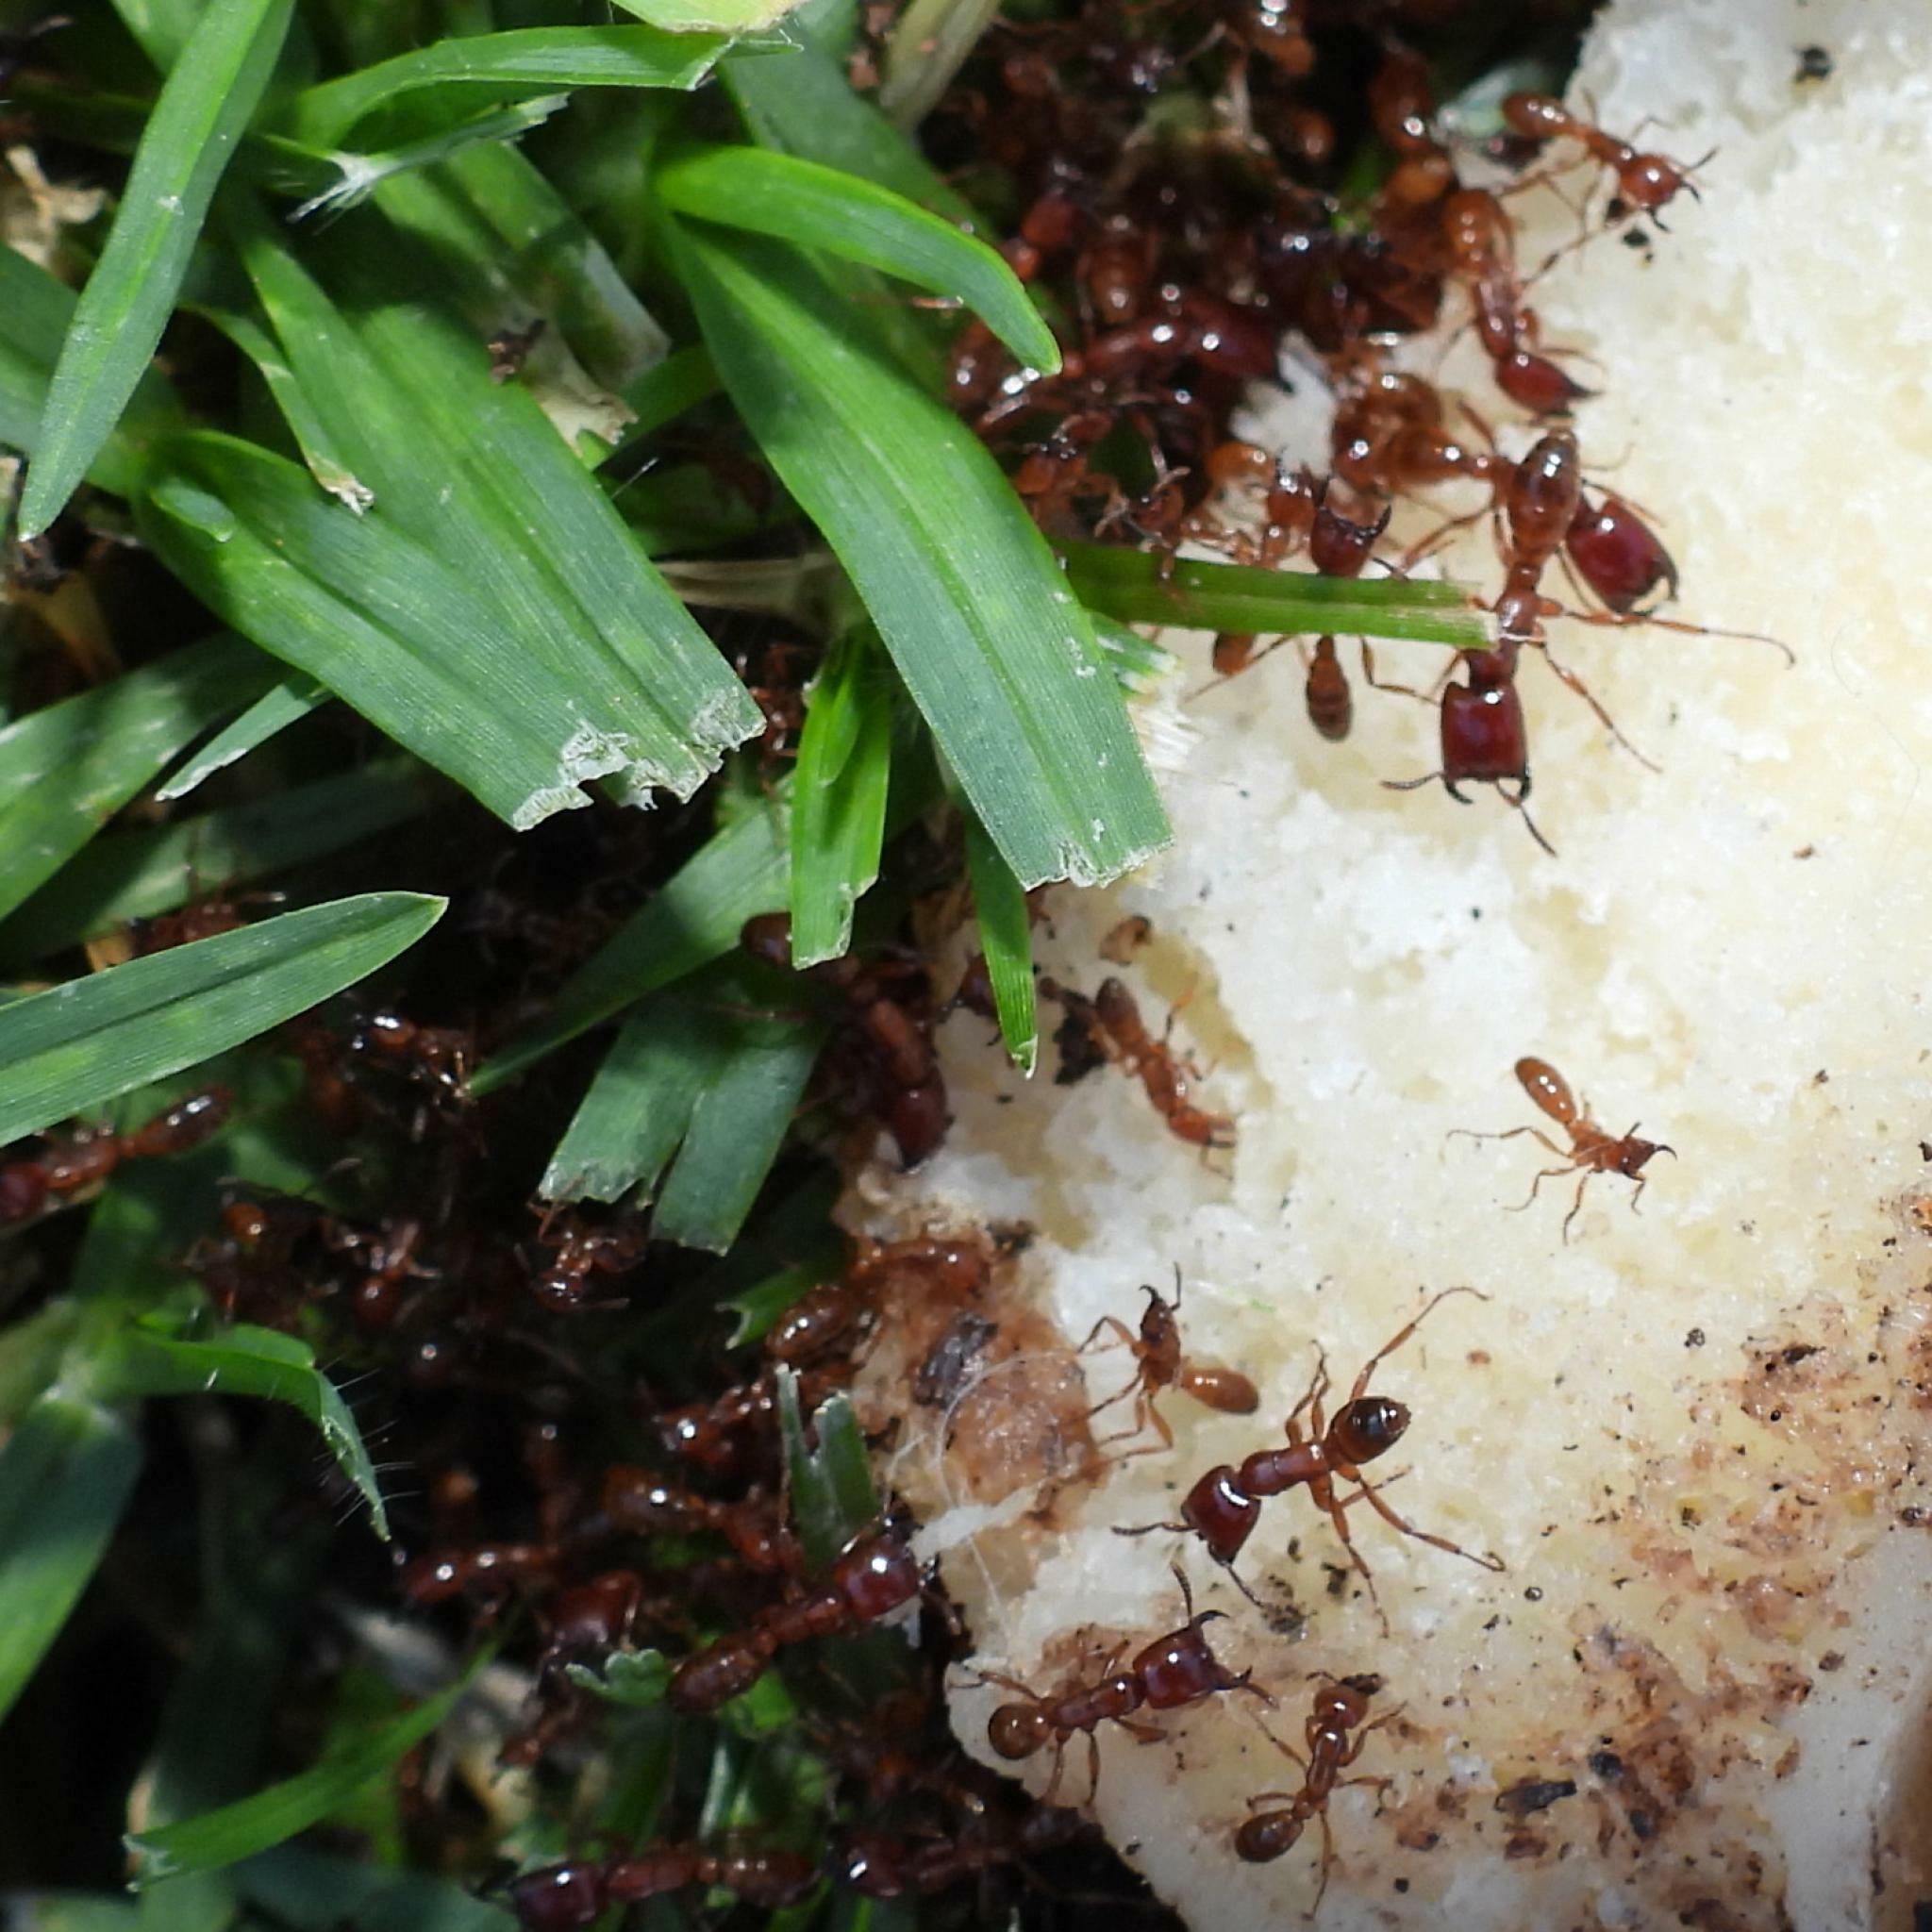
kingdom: Animalia
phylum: Arthropoda
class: Insecta
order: Hymenoptera
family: Formicidae
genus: Dorylus
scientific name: Dorylus helvolus
